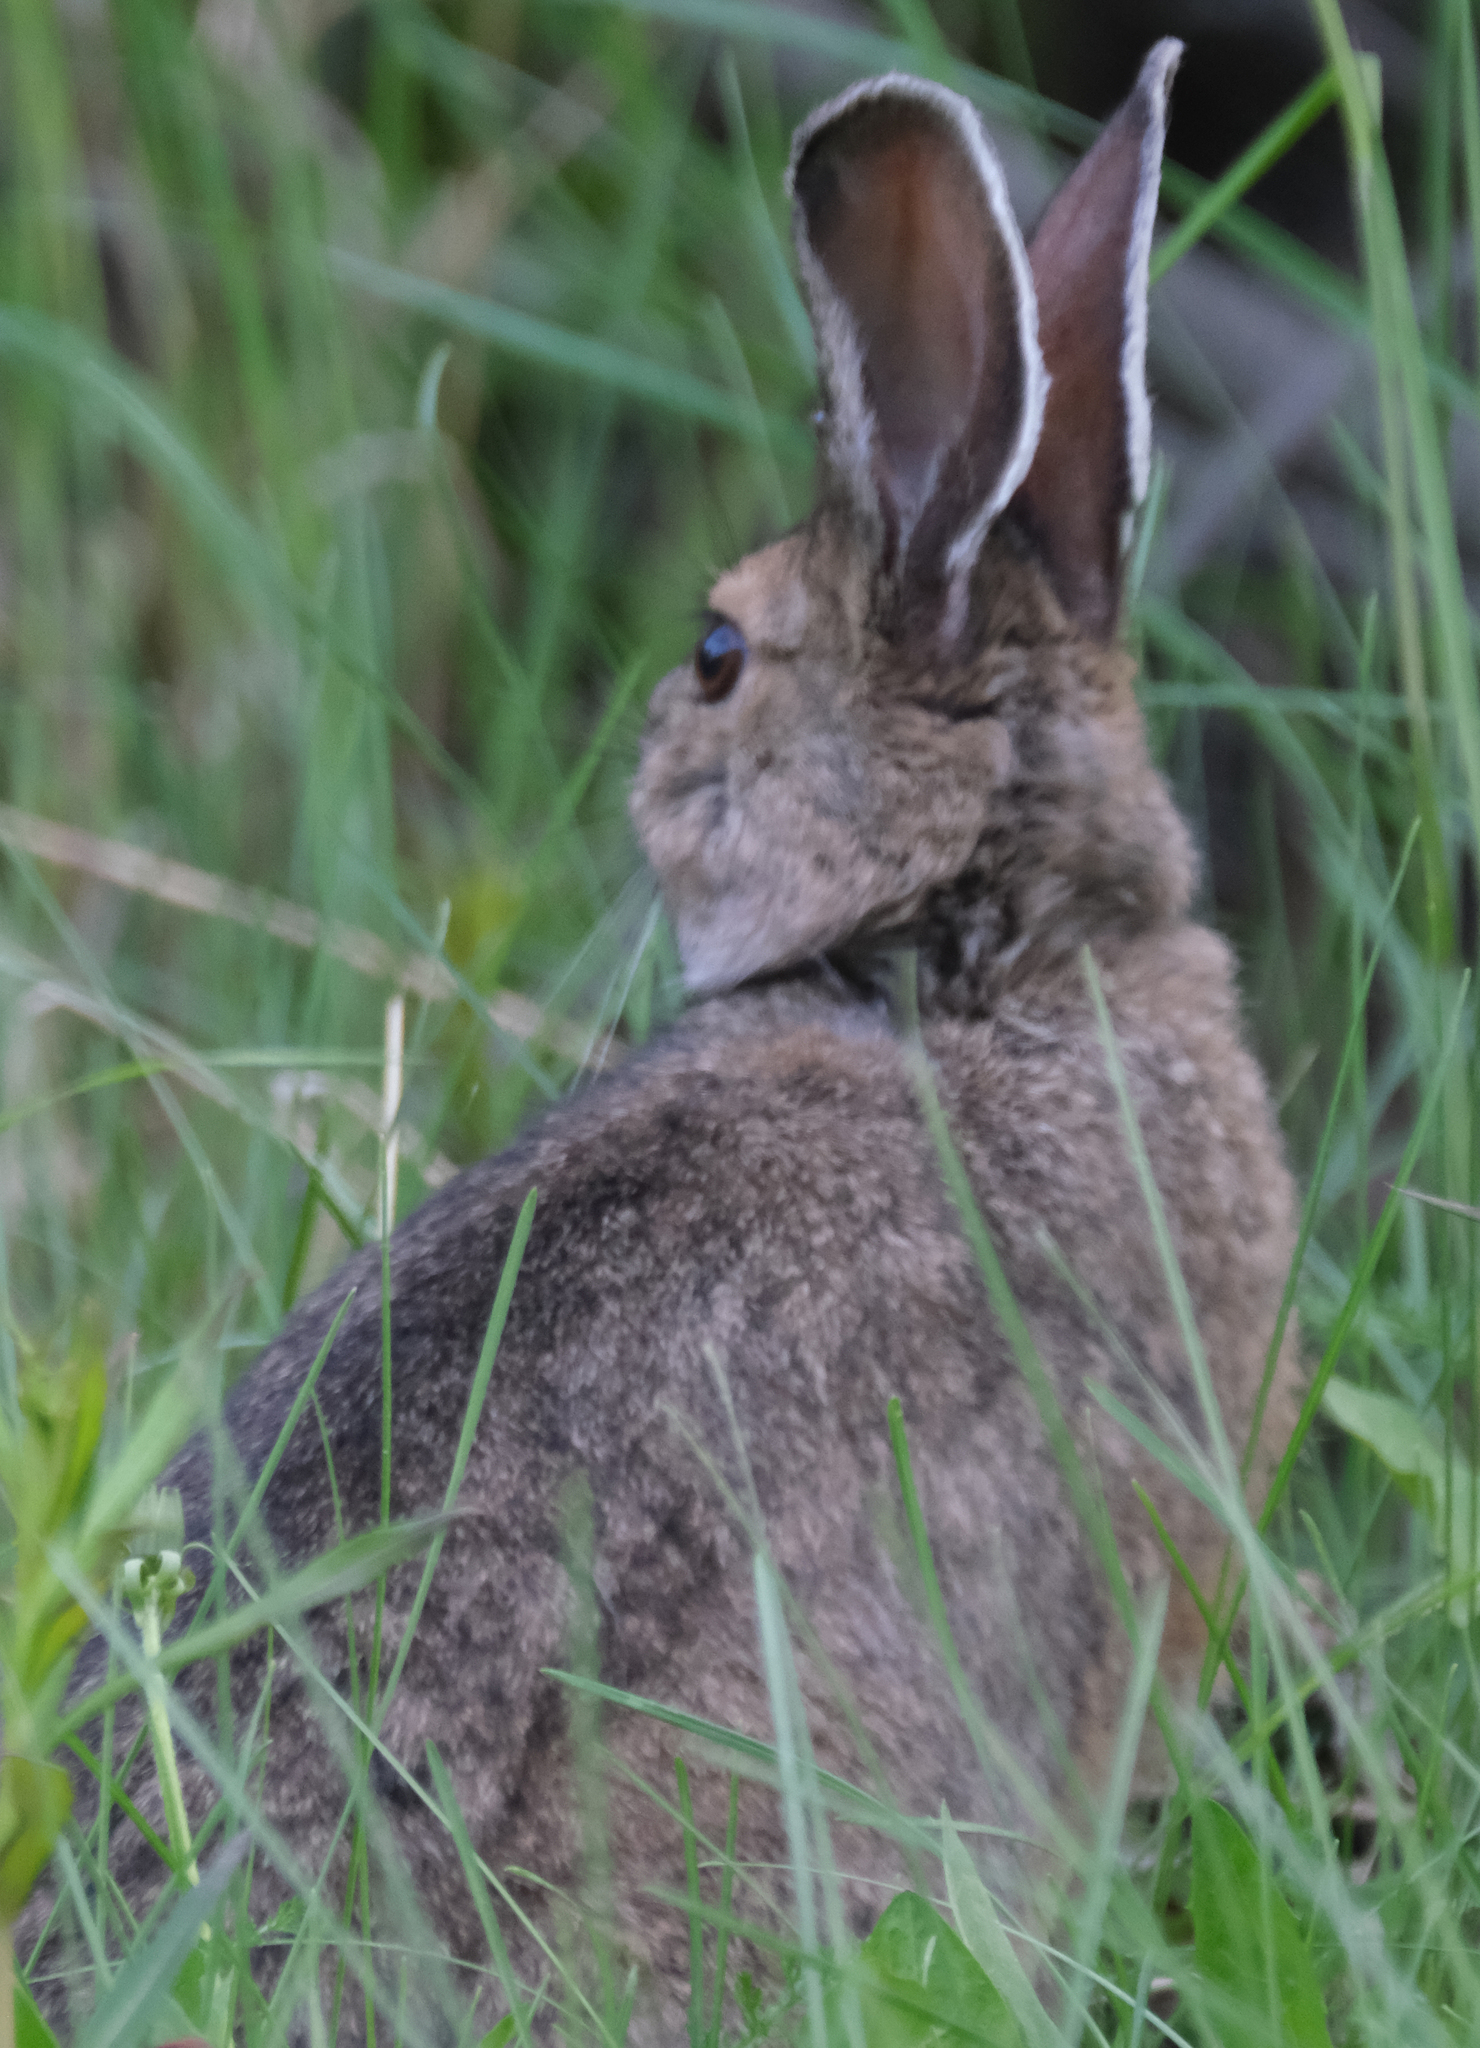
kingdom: Animalia
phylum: Chordata
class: Mammalia
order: Lagomorpha
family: Leporidae
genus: Lepus
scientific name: Lepus americanus
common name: Snowshoe hare
